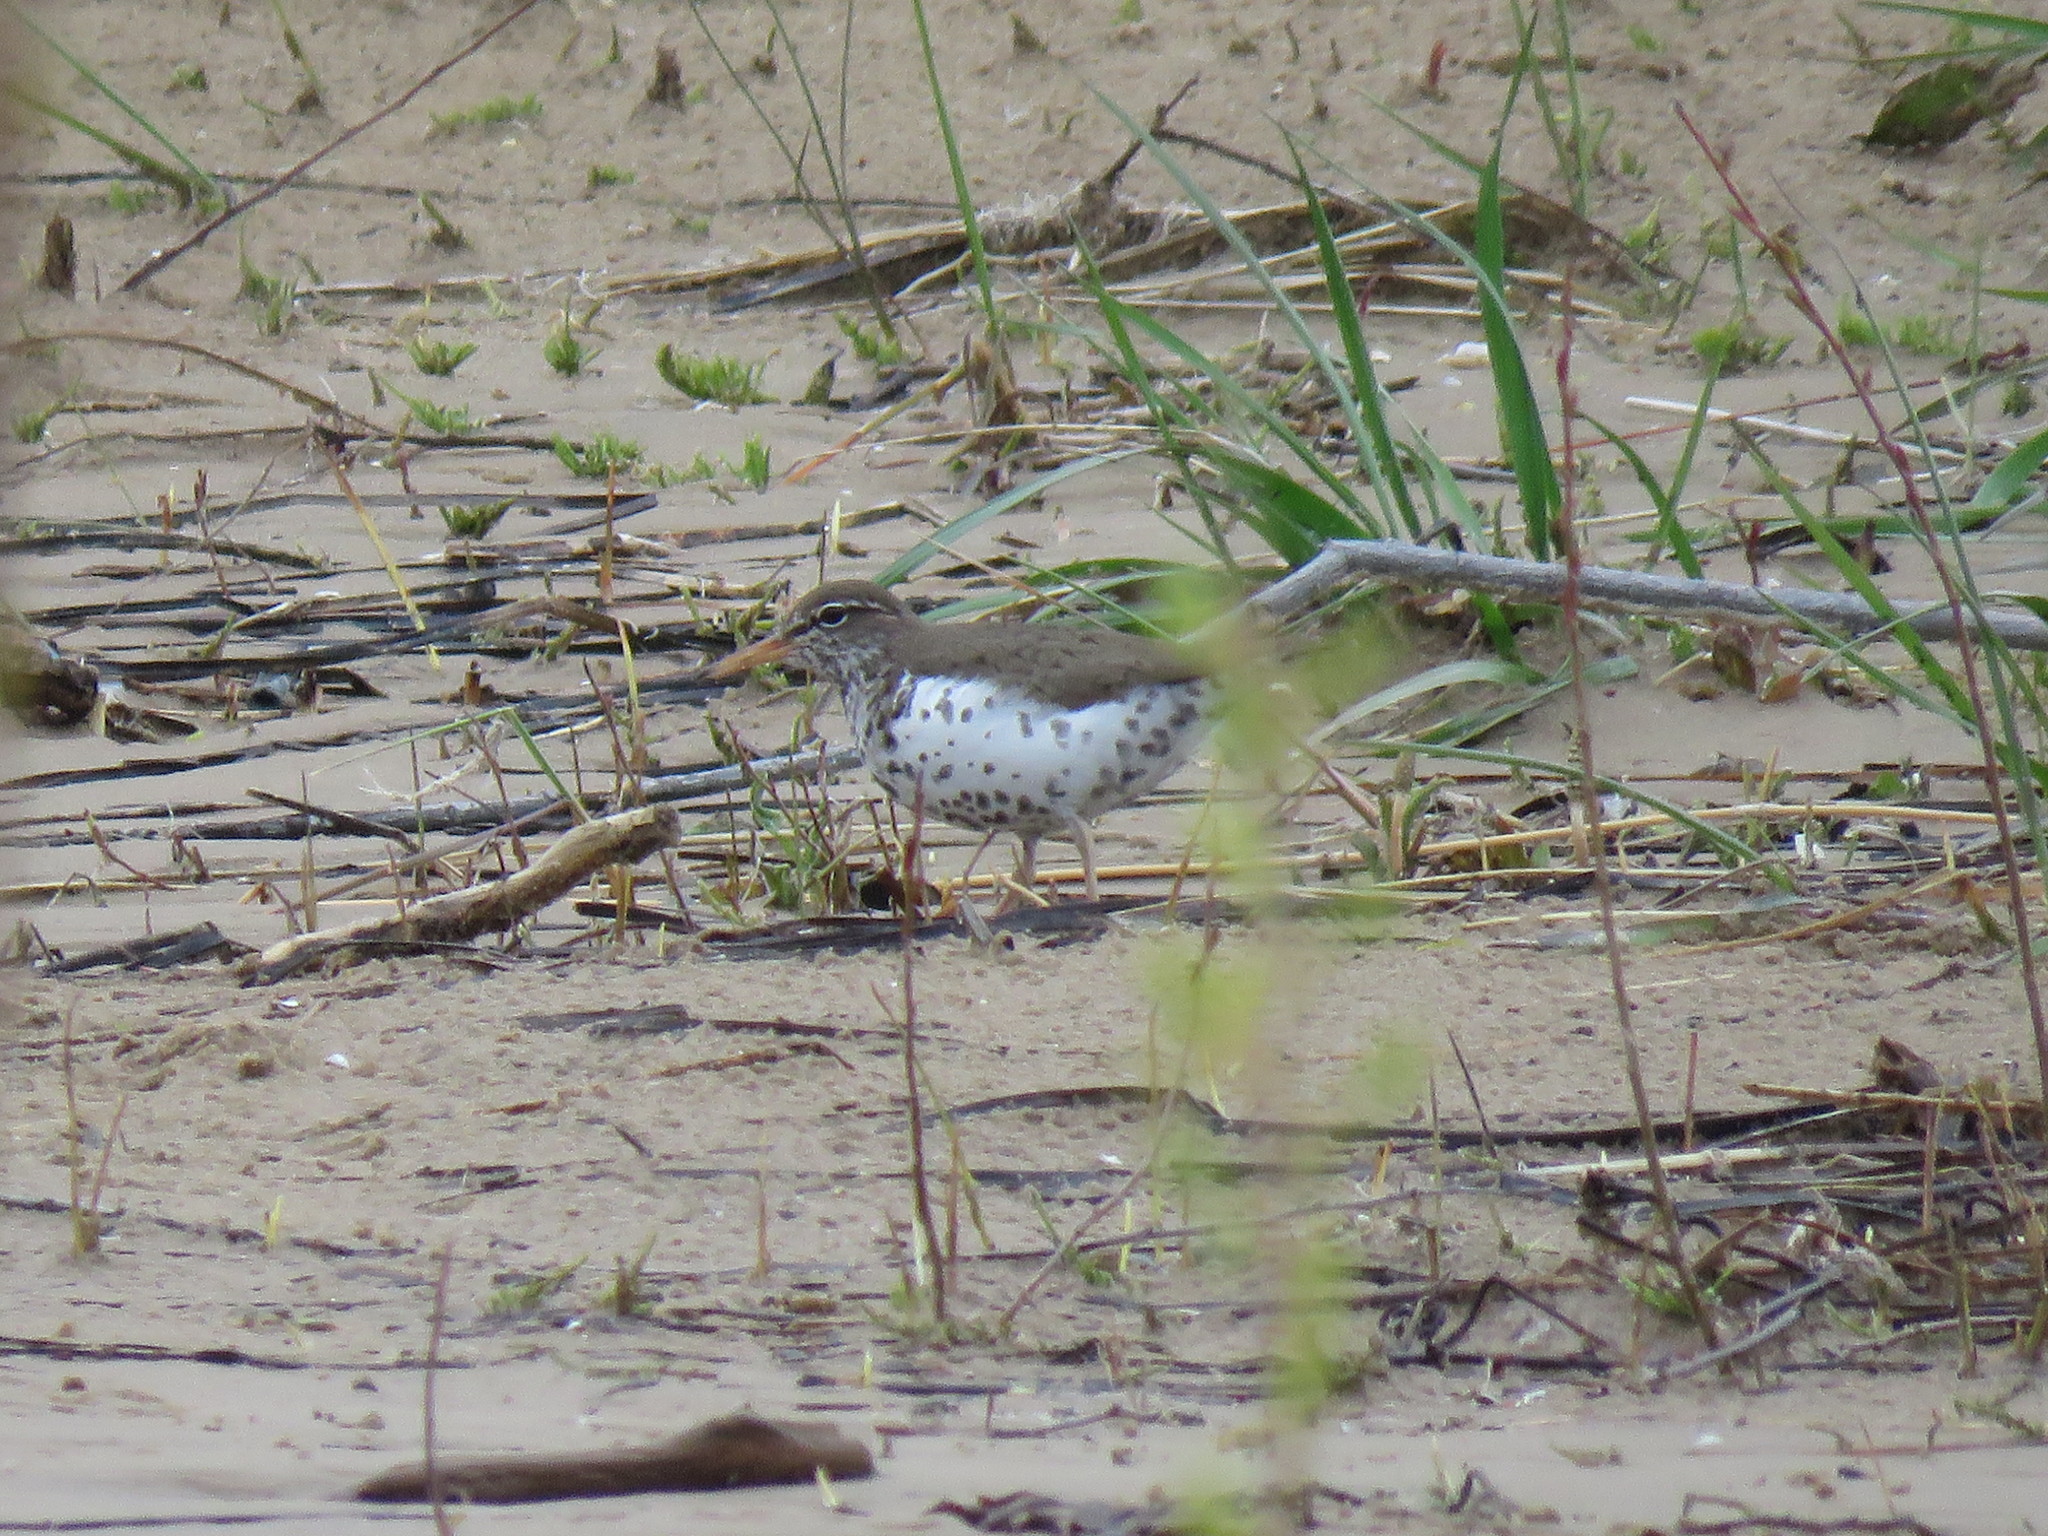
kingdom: Animalia
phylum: Chordata
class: Aves
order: Charadriiformes
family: Scolopacidae
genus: Actitis
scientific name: Actitis macularius
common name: Spotted sandpiper
